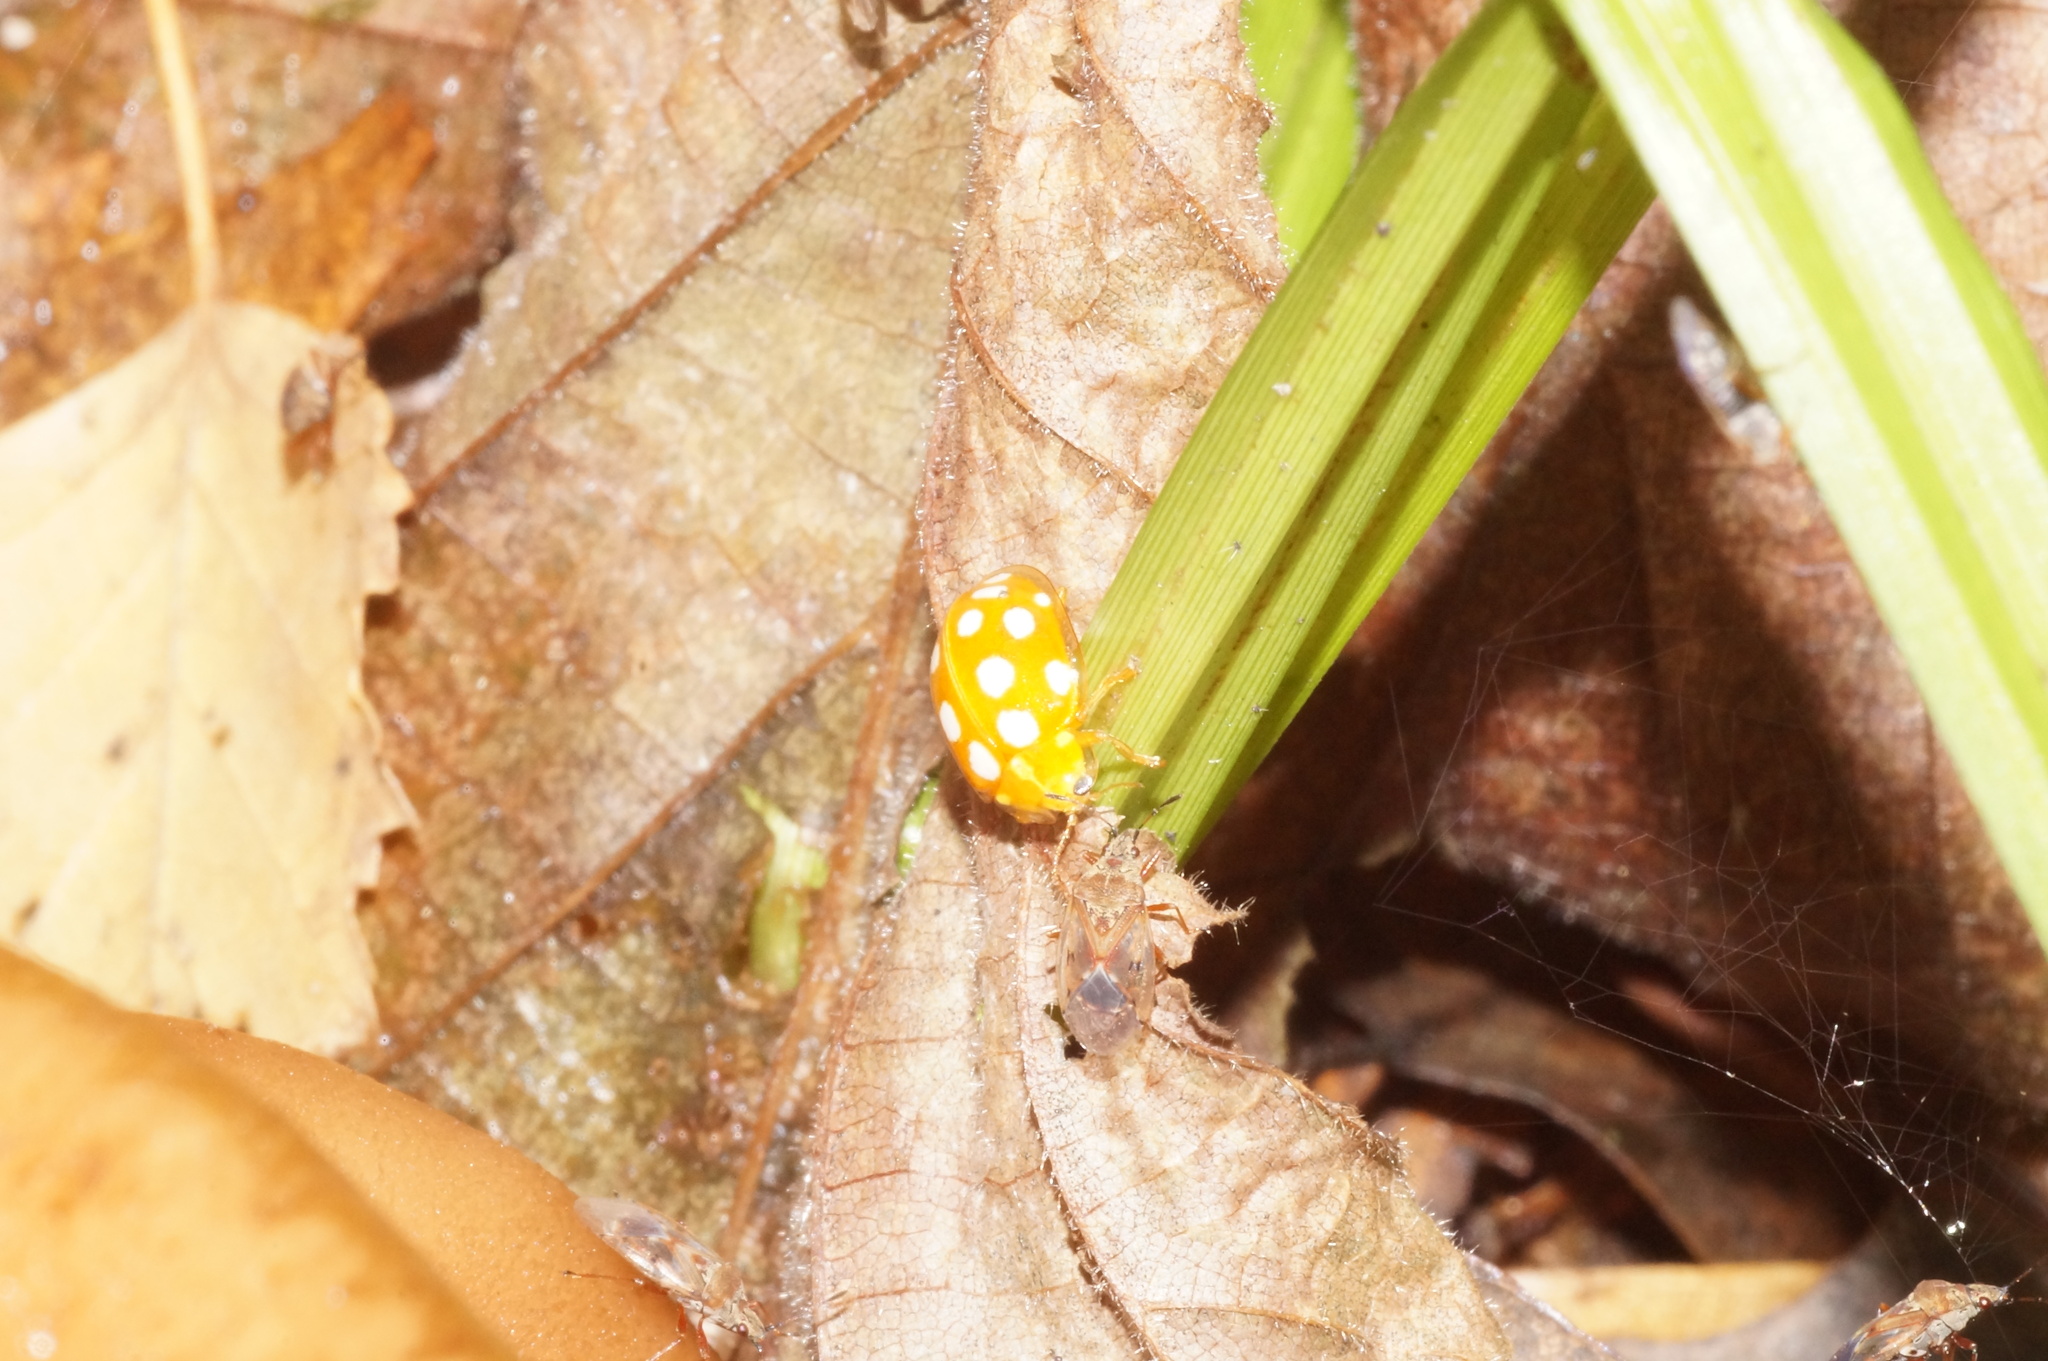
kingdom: Animalia
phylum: Arthropoda
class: Insecta
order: Coleoptera
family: Coccinellidae
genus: Halyzia
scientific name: Halyzia sedecimguttata
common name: Orange ladybird
